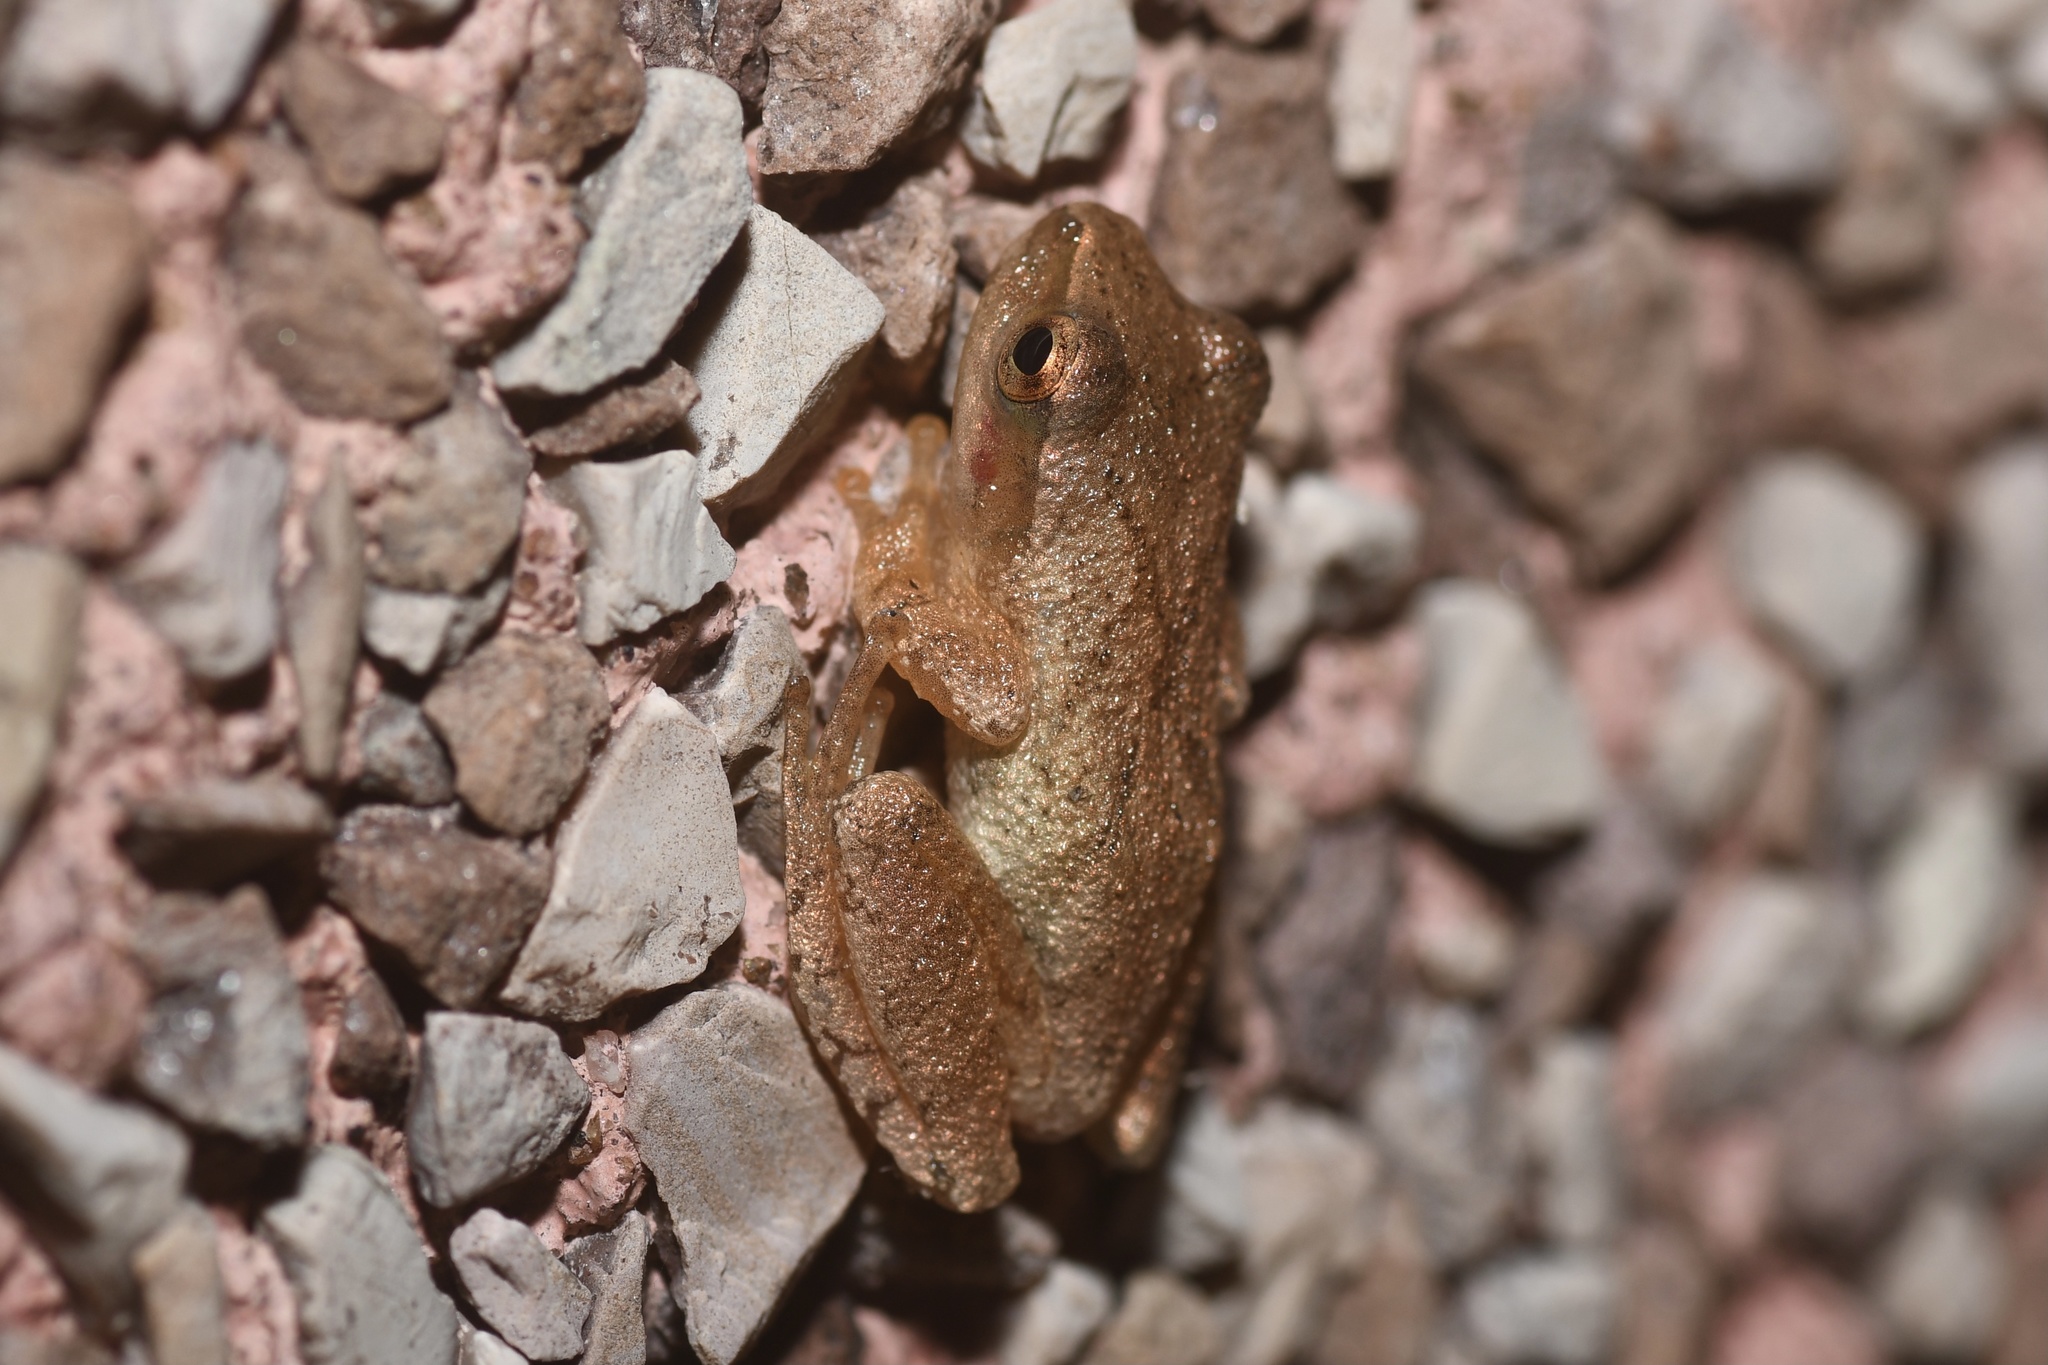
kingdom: Animalia
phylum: Chordata
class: Amphibia
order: Anura
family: Hylidae
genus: Pseudacris
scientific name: Pseudacris crucifer
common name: Spring peeper
